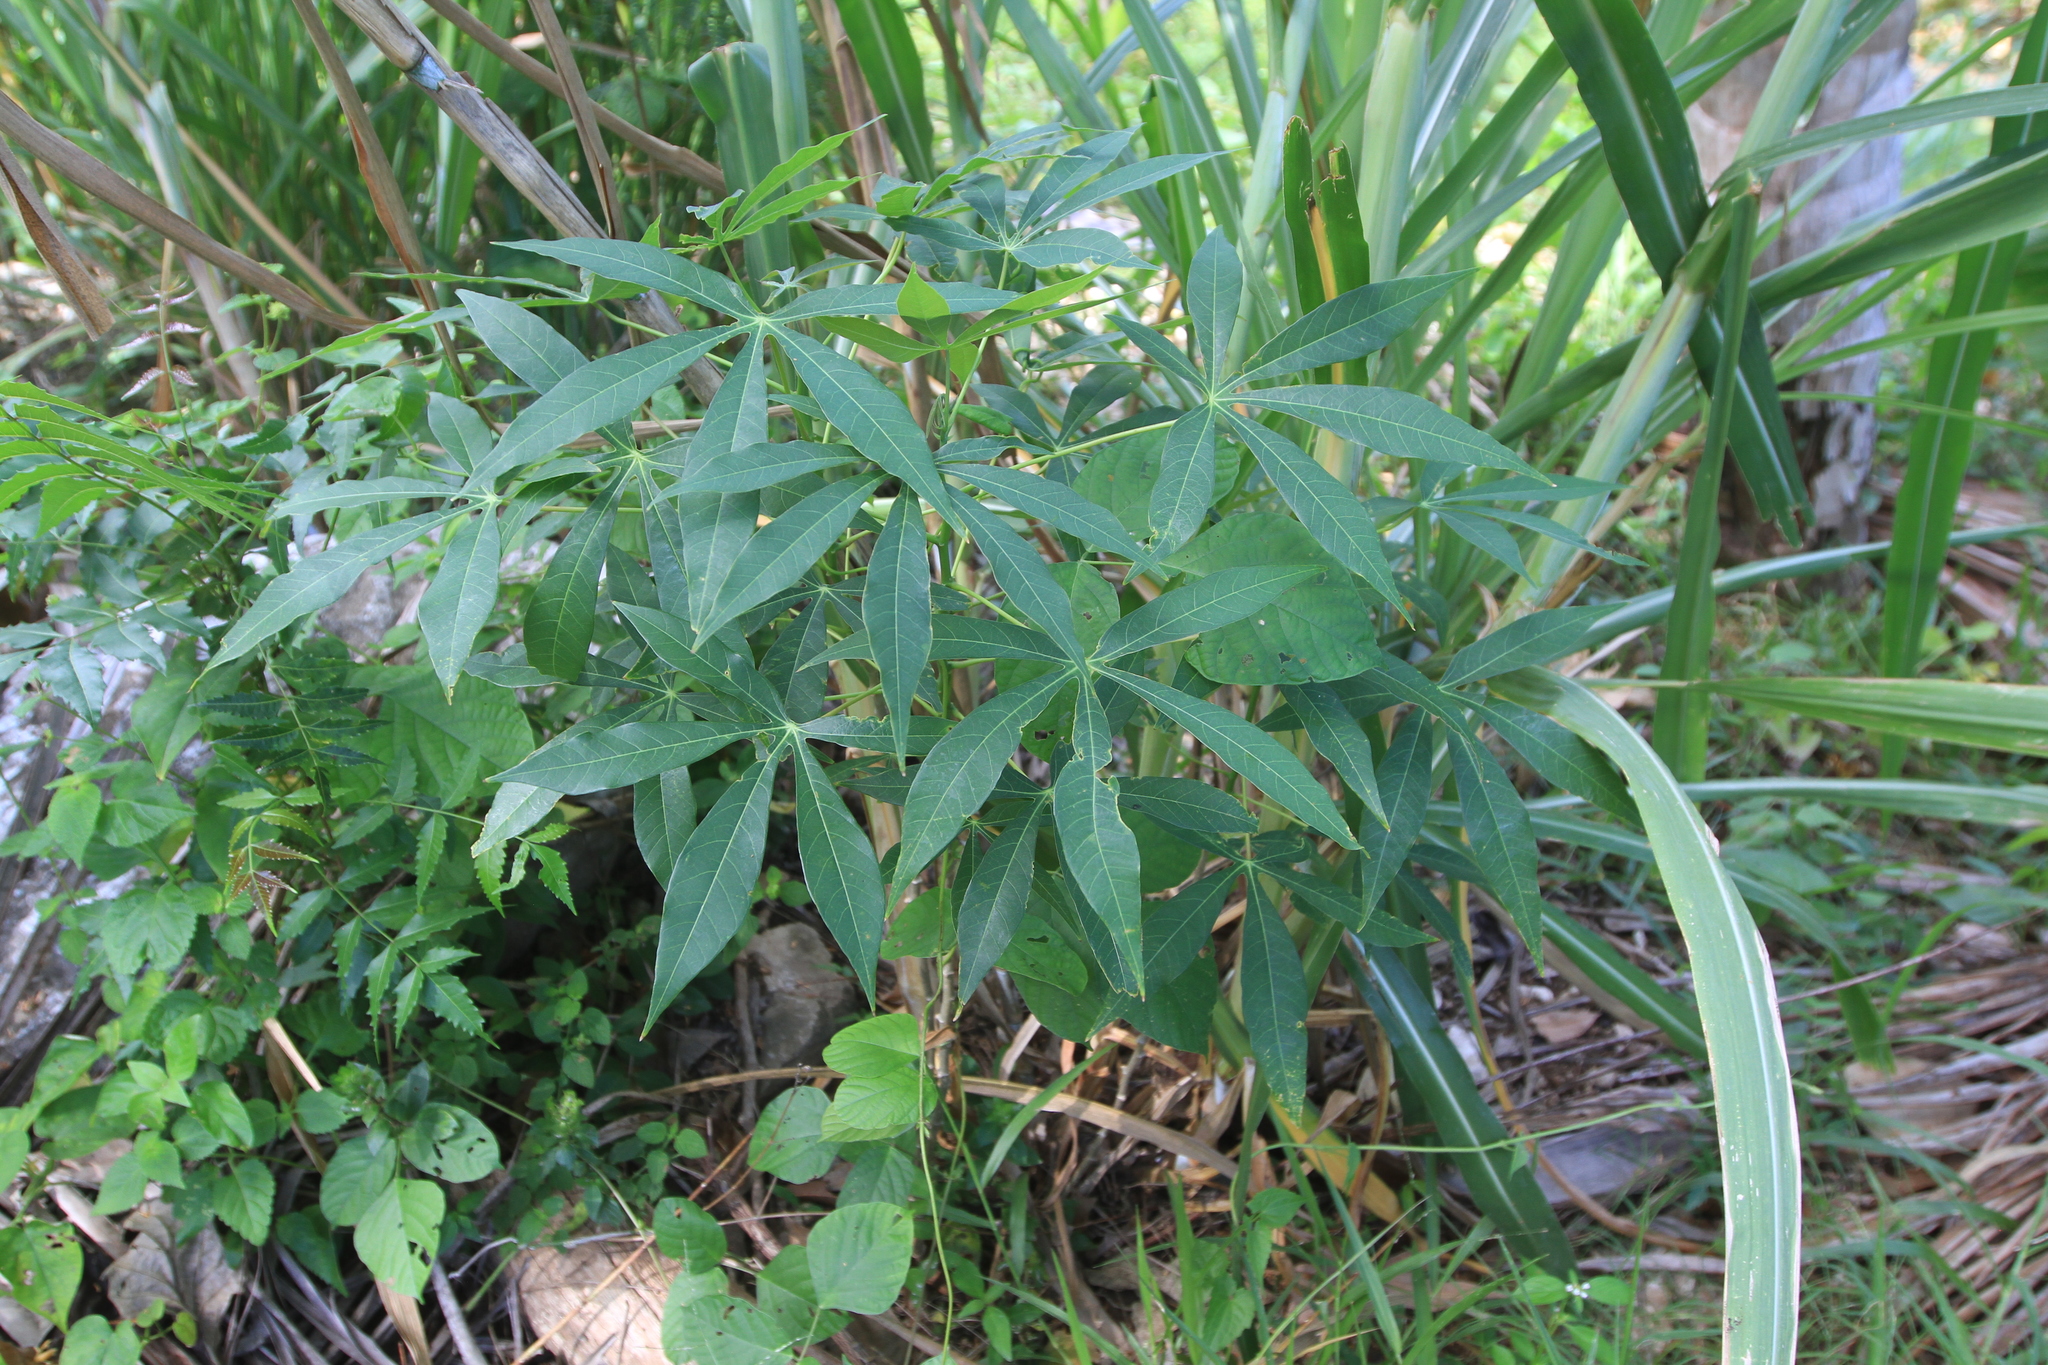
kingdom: Plantae
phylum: Tracheophyta
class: Magnoliopsida
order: Malpighiales
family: Euphorbiaceae
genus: Manihot
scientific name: Manihot esculenta
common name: Cassava
